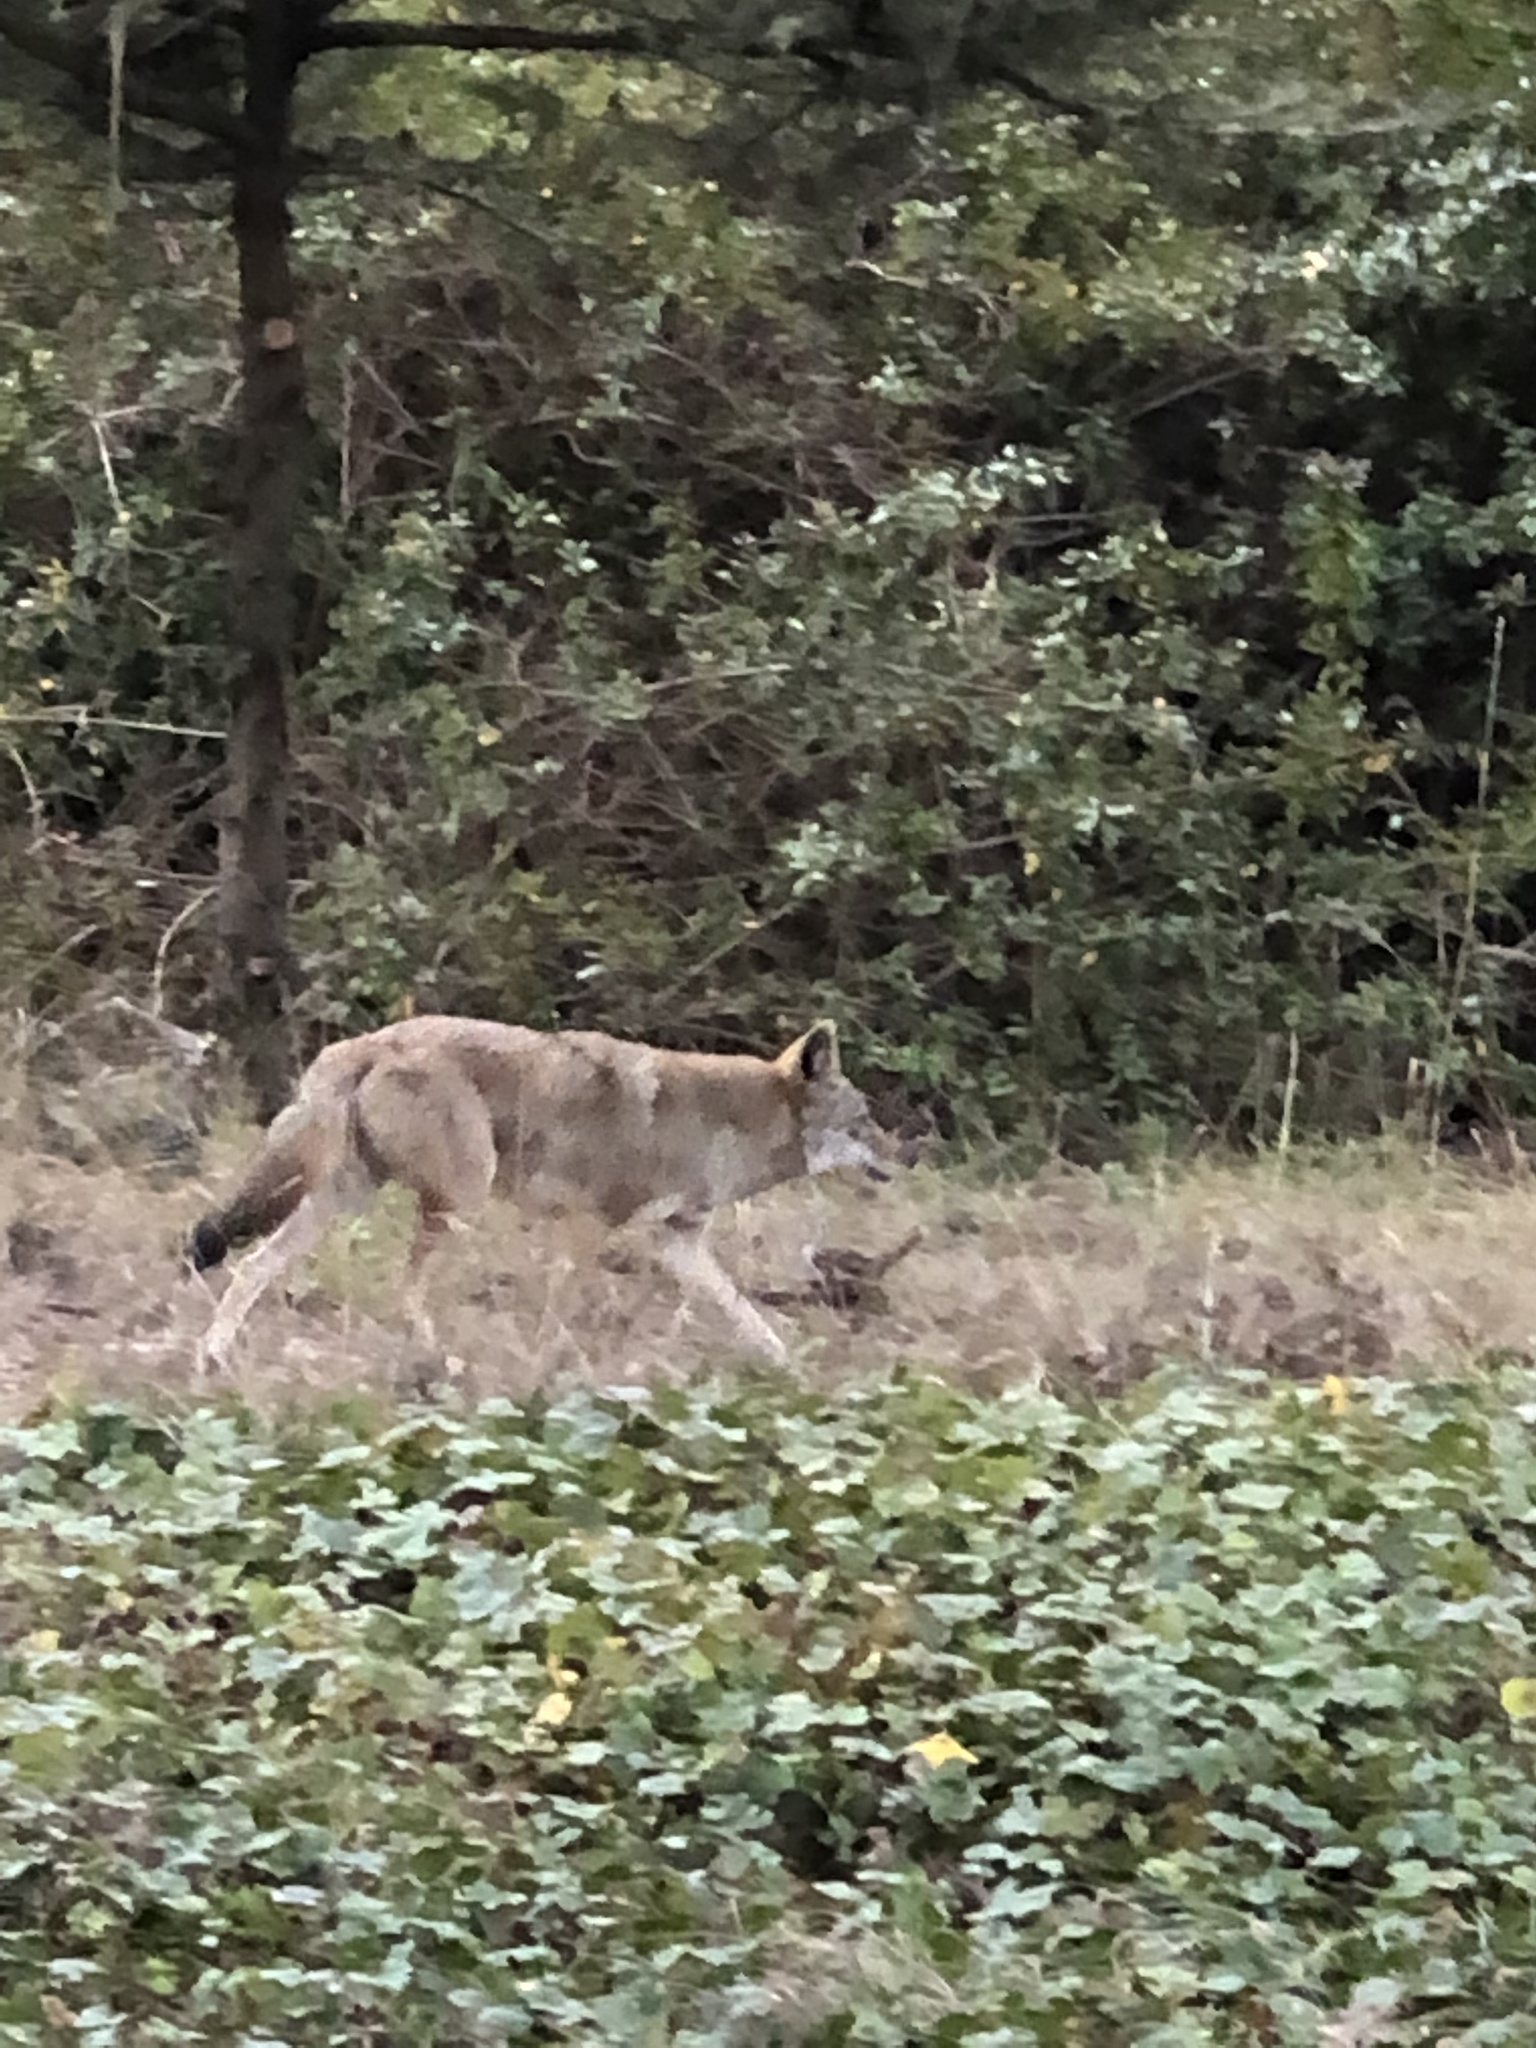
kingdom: Animalia
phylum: Chordata
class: Mammalia
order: Carnivora
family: Canidae
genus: Canis
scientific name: Canis latrans
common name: Coyote
